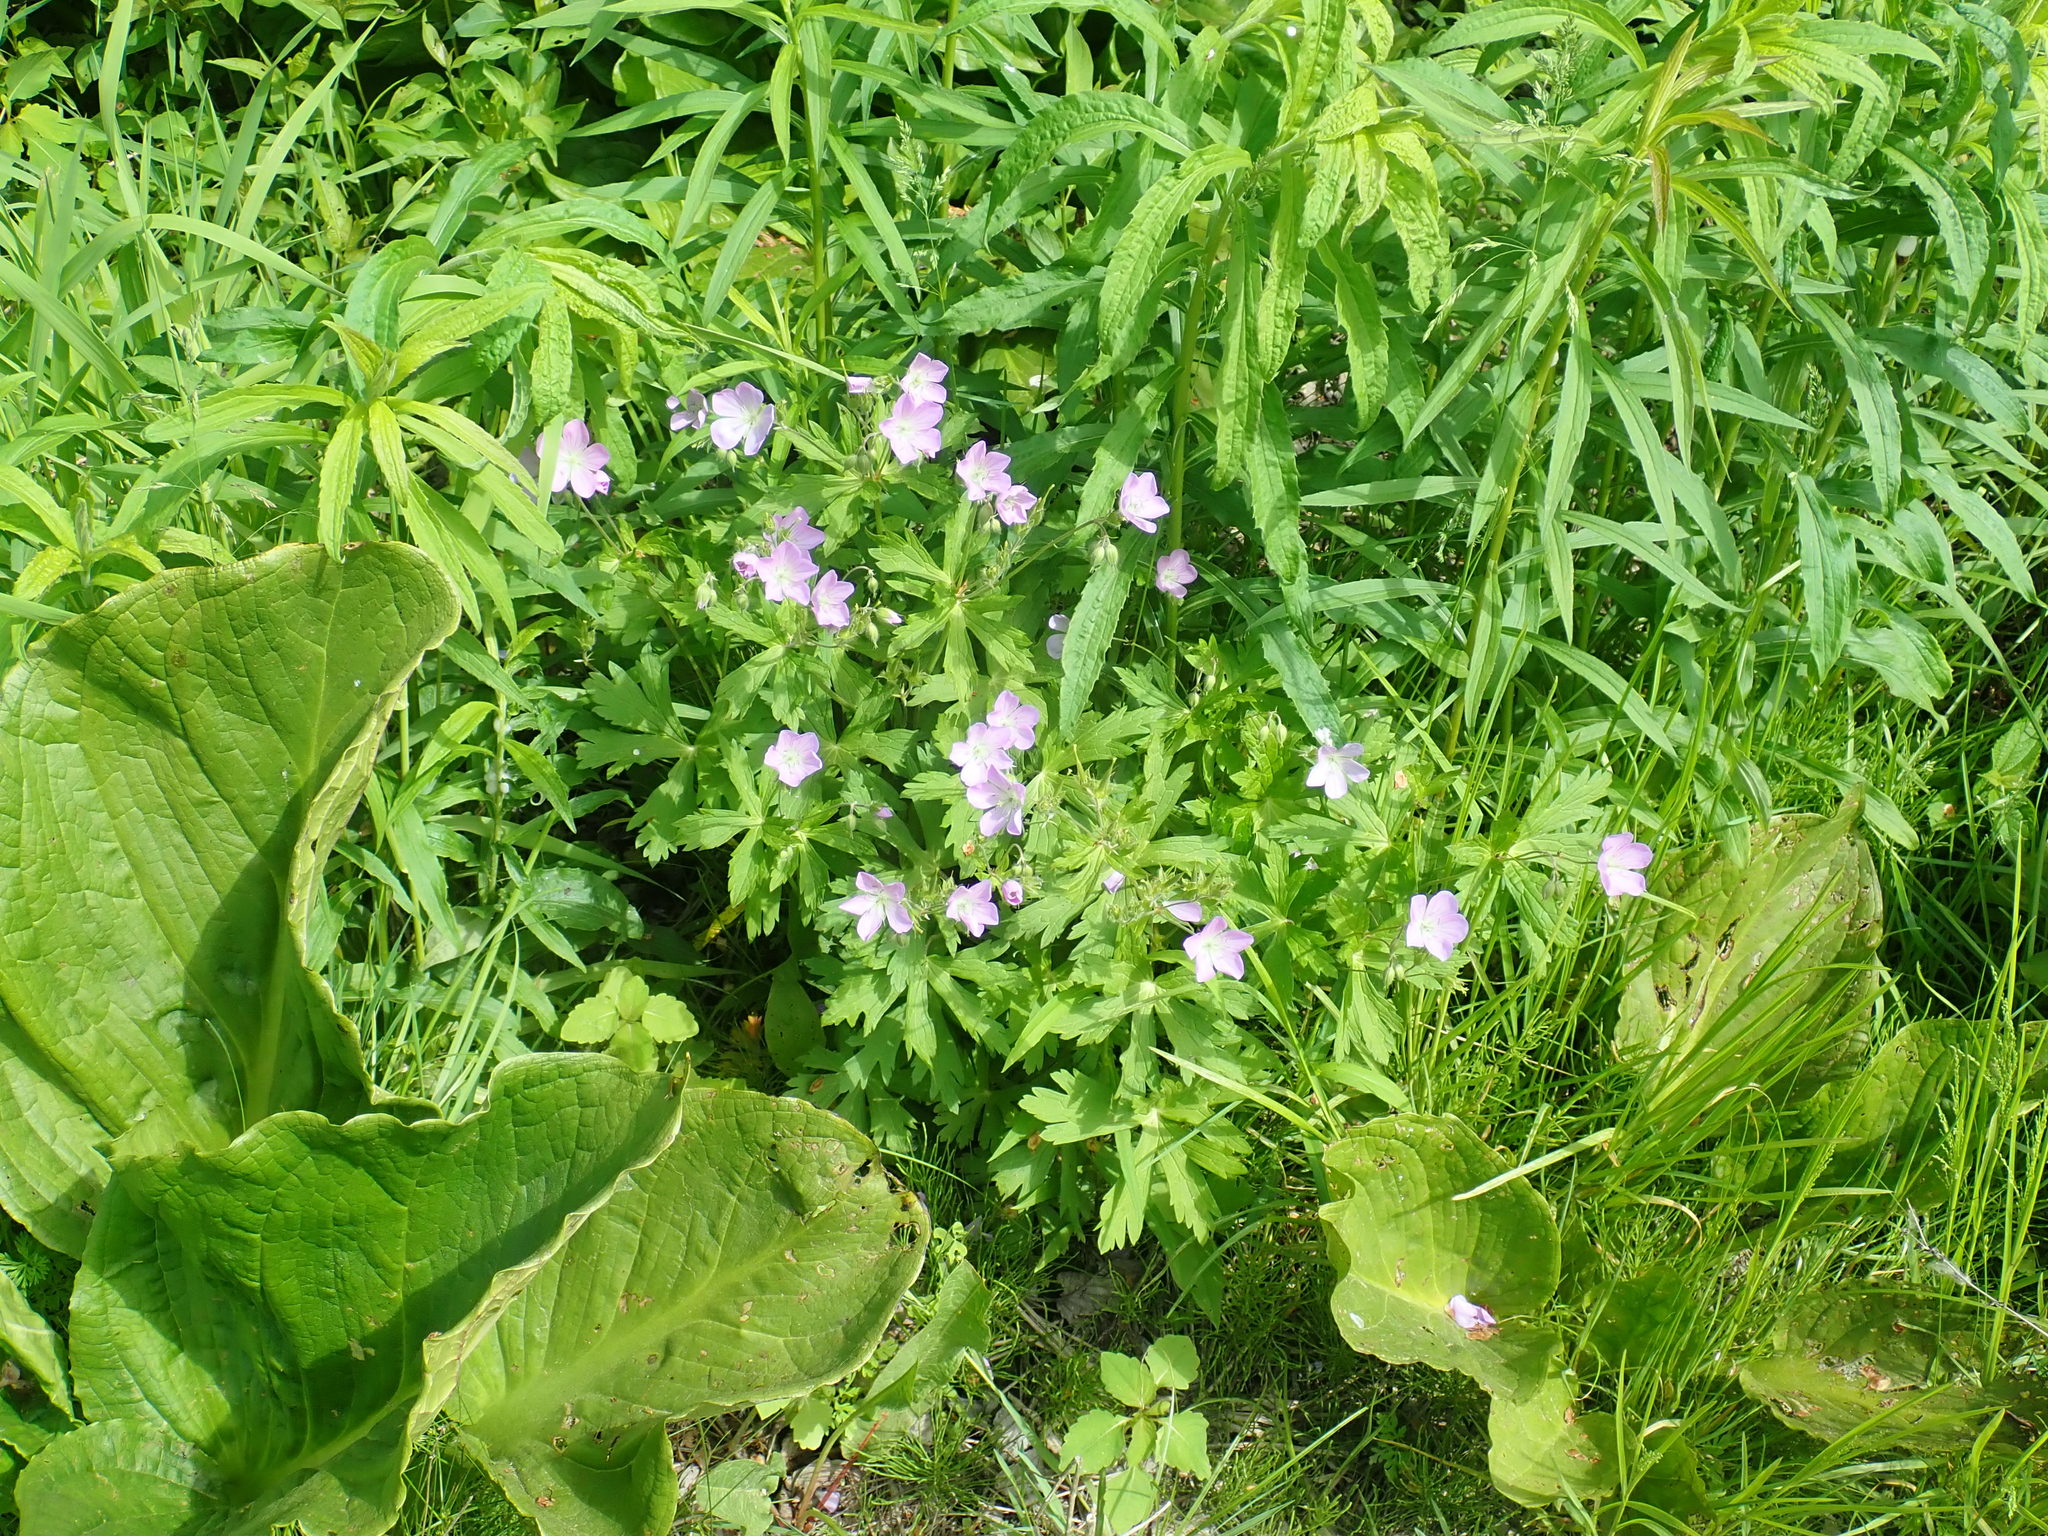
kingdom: Plantae
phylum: Tracheophyta
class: Magnoliopsida
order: Geraniales
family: Geraniaceae
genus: Geranium
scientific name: Geranium maculatum
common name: Spotted geranium
